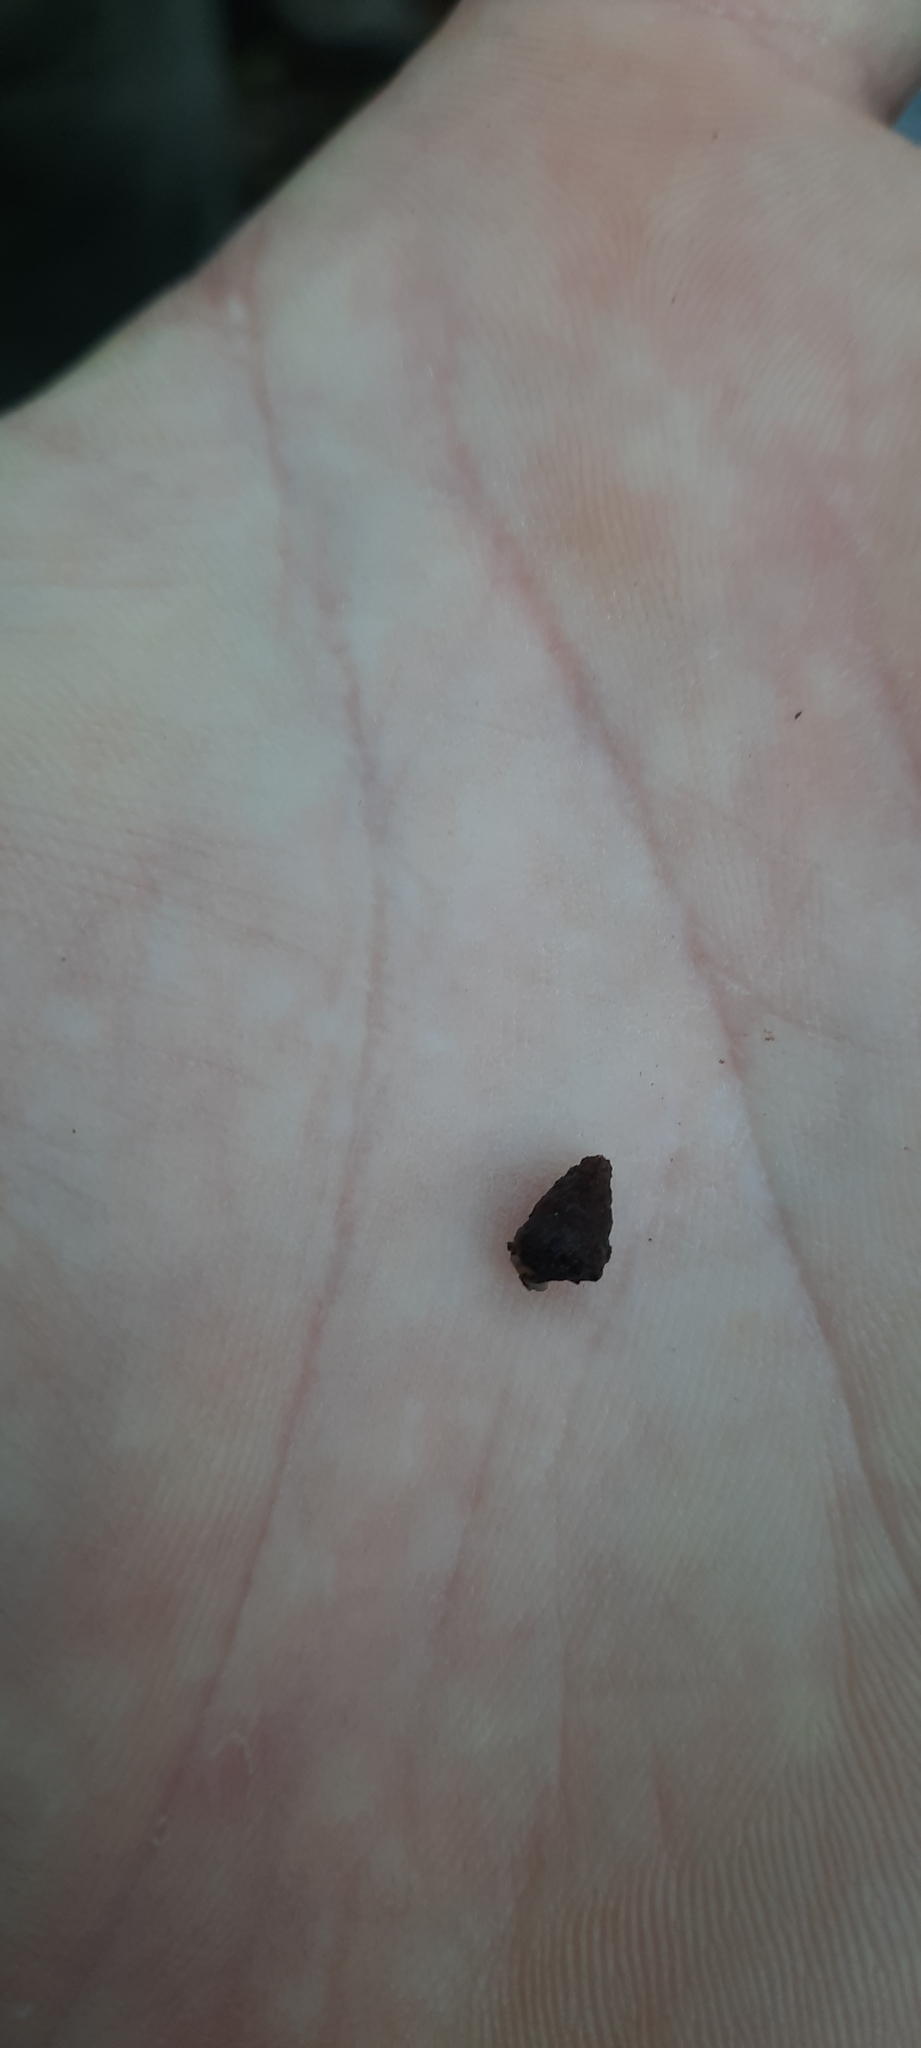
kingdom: Animalia
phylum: Mollusca
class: Gastropoda
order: Stylommatophora
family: Enidae
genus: Merdigera
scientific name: Merdigera obscura
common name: Lesser bulin
